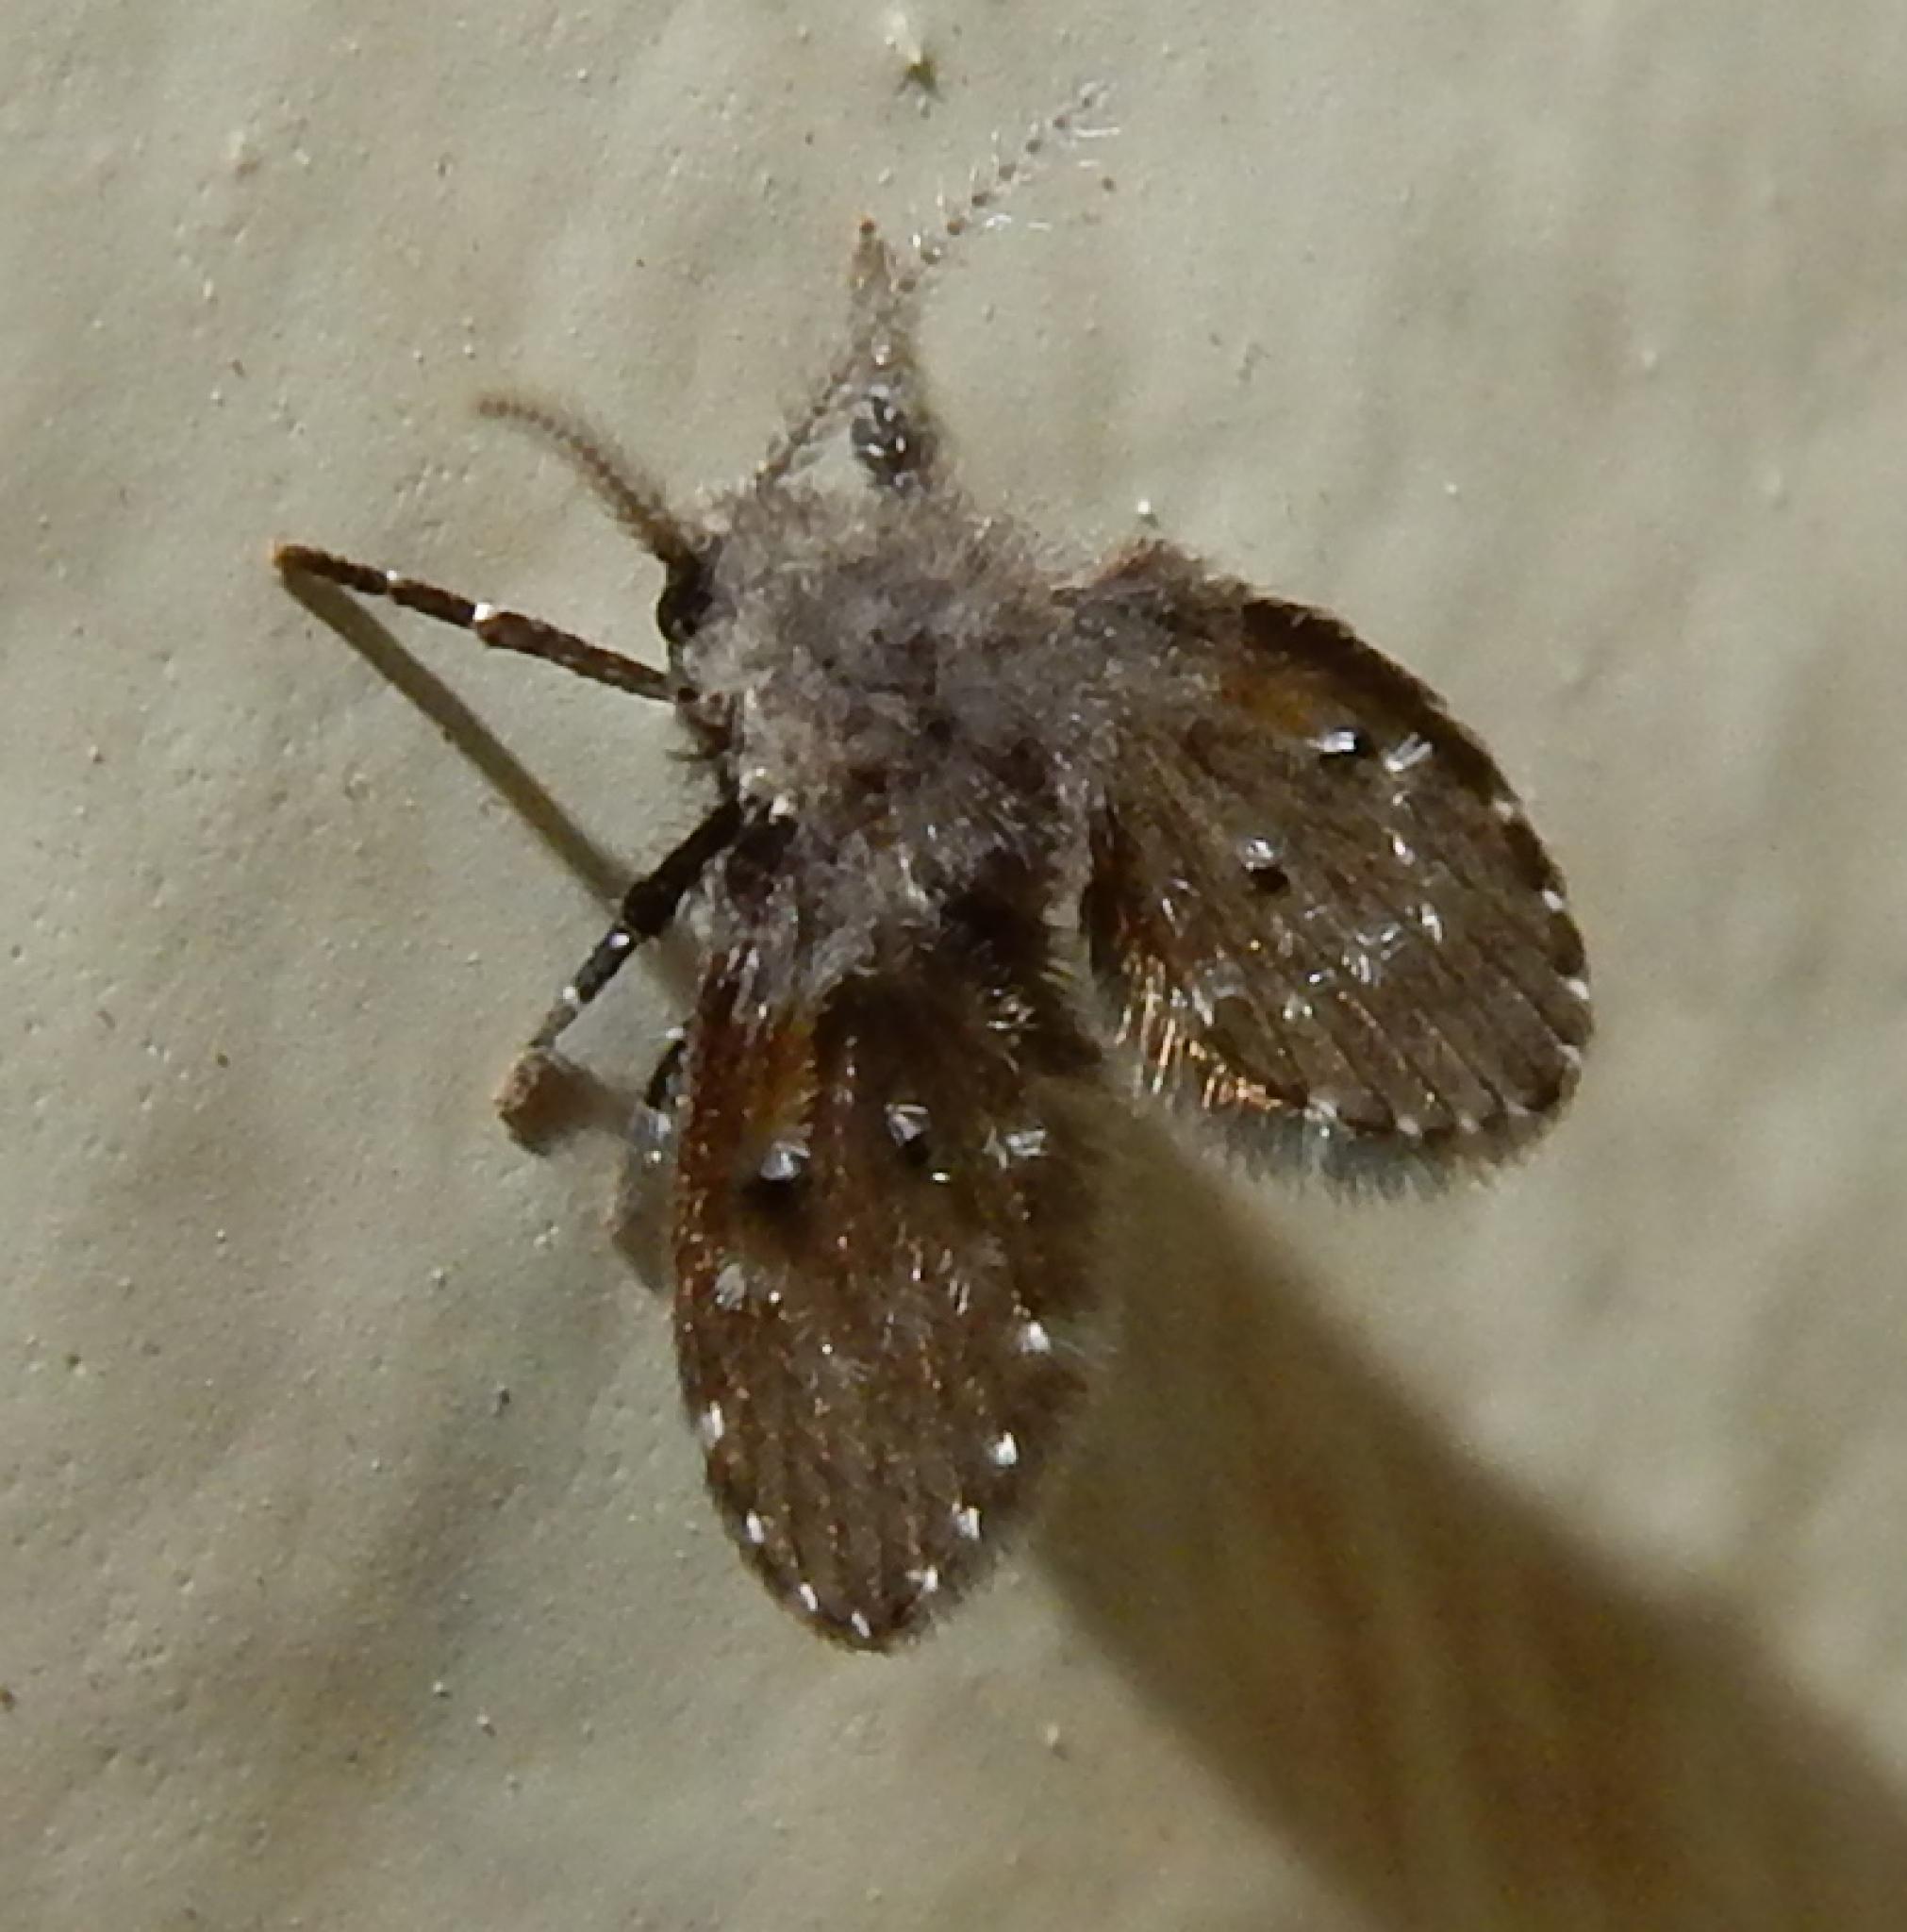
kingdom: Animalia
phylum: Arthropoda
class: Insecta
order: Diptera
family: Psychodidae
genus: Clogmia
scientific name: Clogmia albipunctatus
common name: White-spotted moth fly
